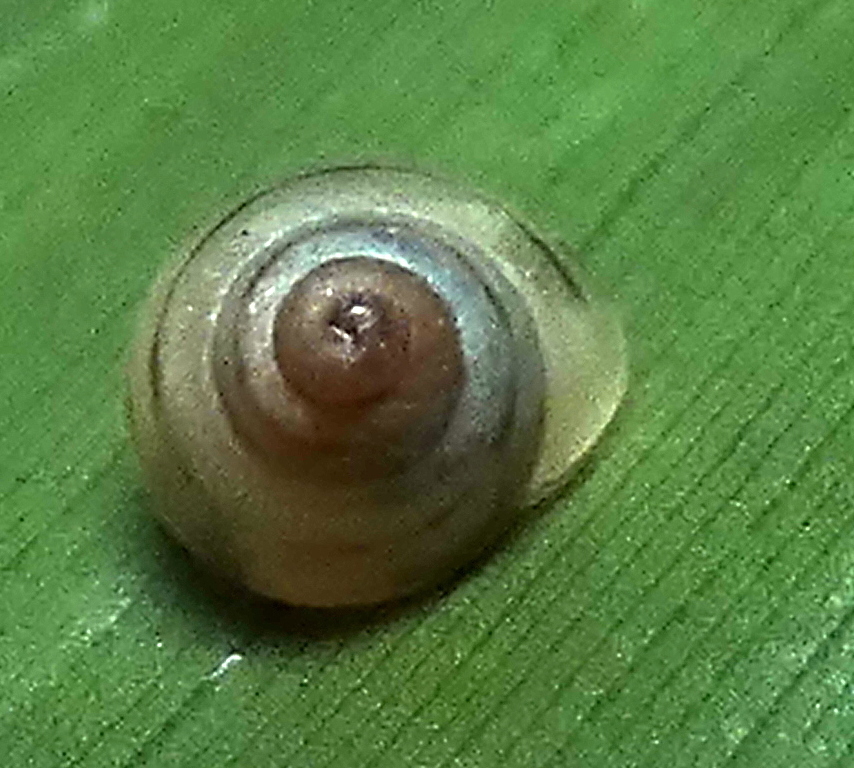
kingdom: Animalia
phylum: Mollusca
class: Gastropoda
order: Stylommatophora
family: Bulimulidae
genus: Drymaeus
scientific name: Drymaeus
